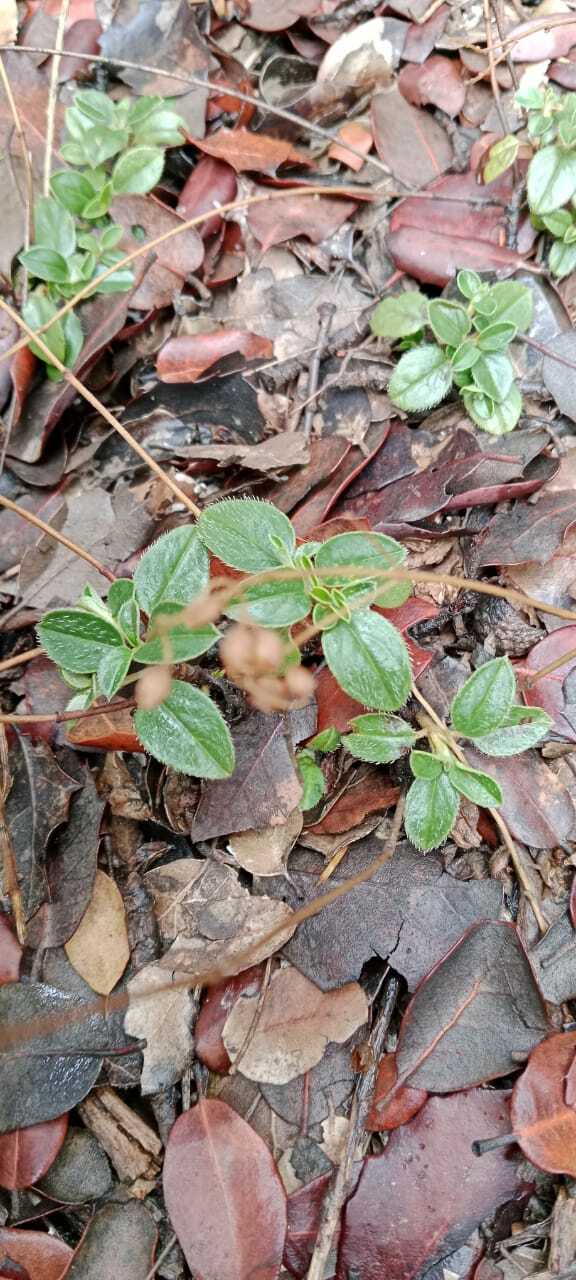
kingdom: Plantae
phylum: Tracheophyta
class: Magnoliopsida
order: Malvales
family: Cistaceae
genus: Helianthemum
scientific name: Helianthemum cinereum
